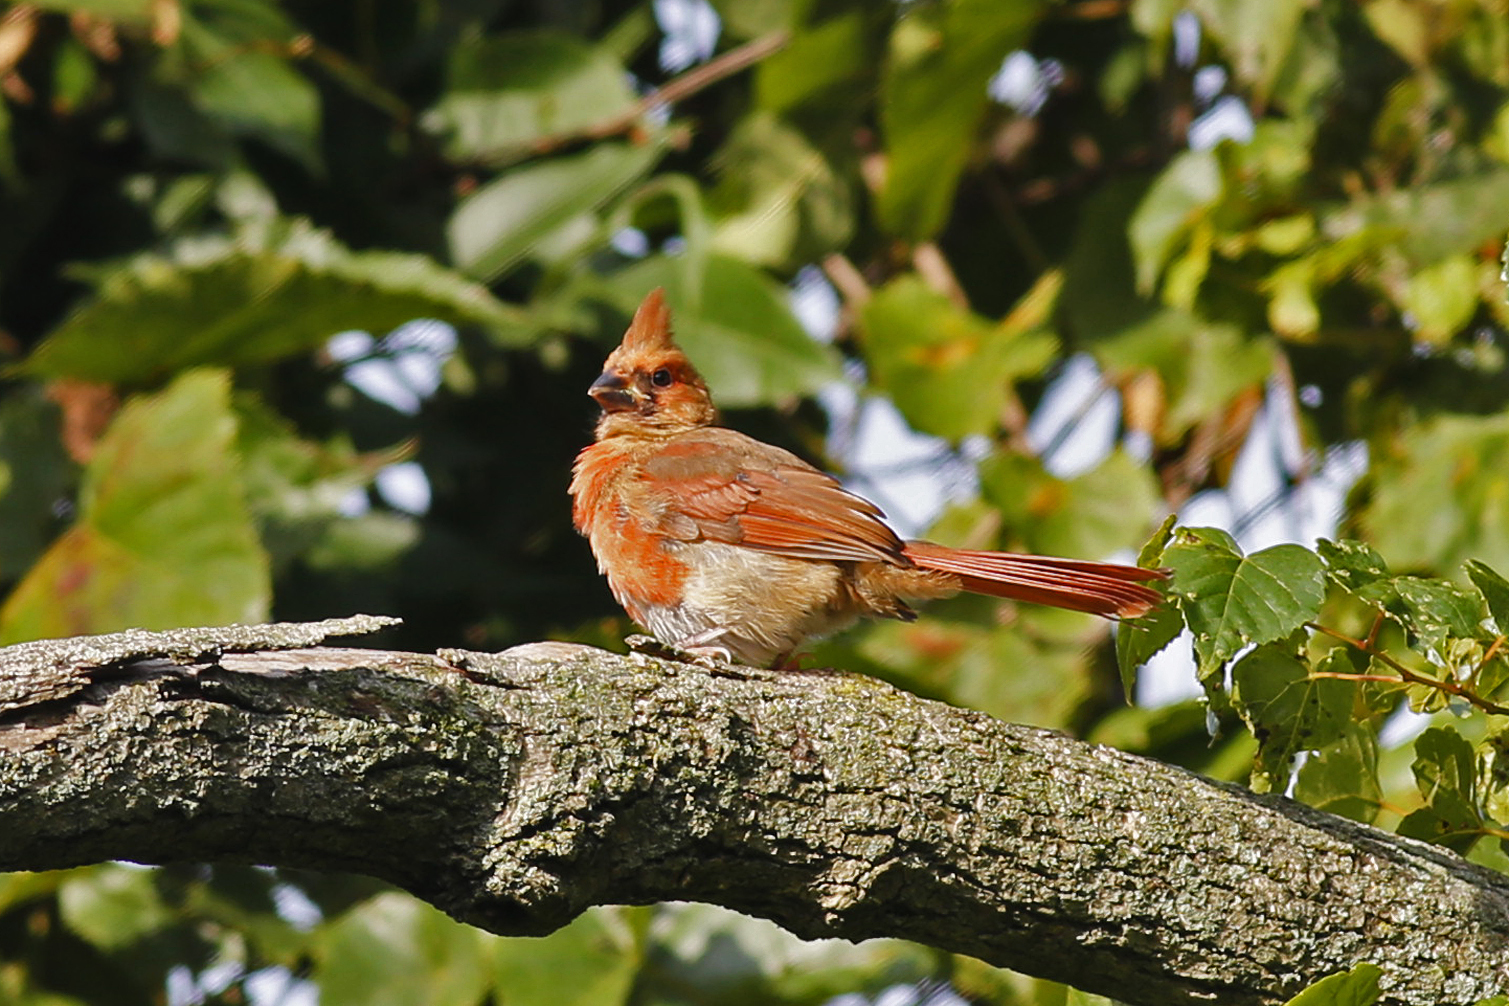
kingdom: Animalia
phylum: Chordata
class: Aves
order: Passeriformes
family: Cardinalidae
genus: Cardinalis
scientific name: Cardinalis cardinalis
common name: Northern cardinal
